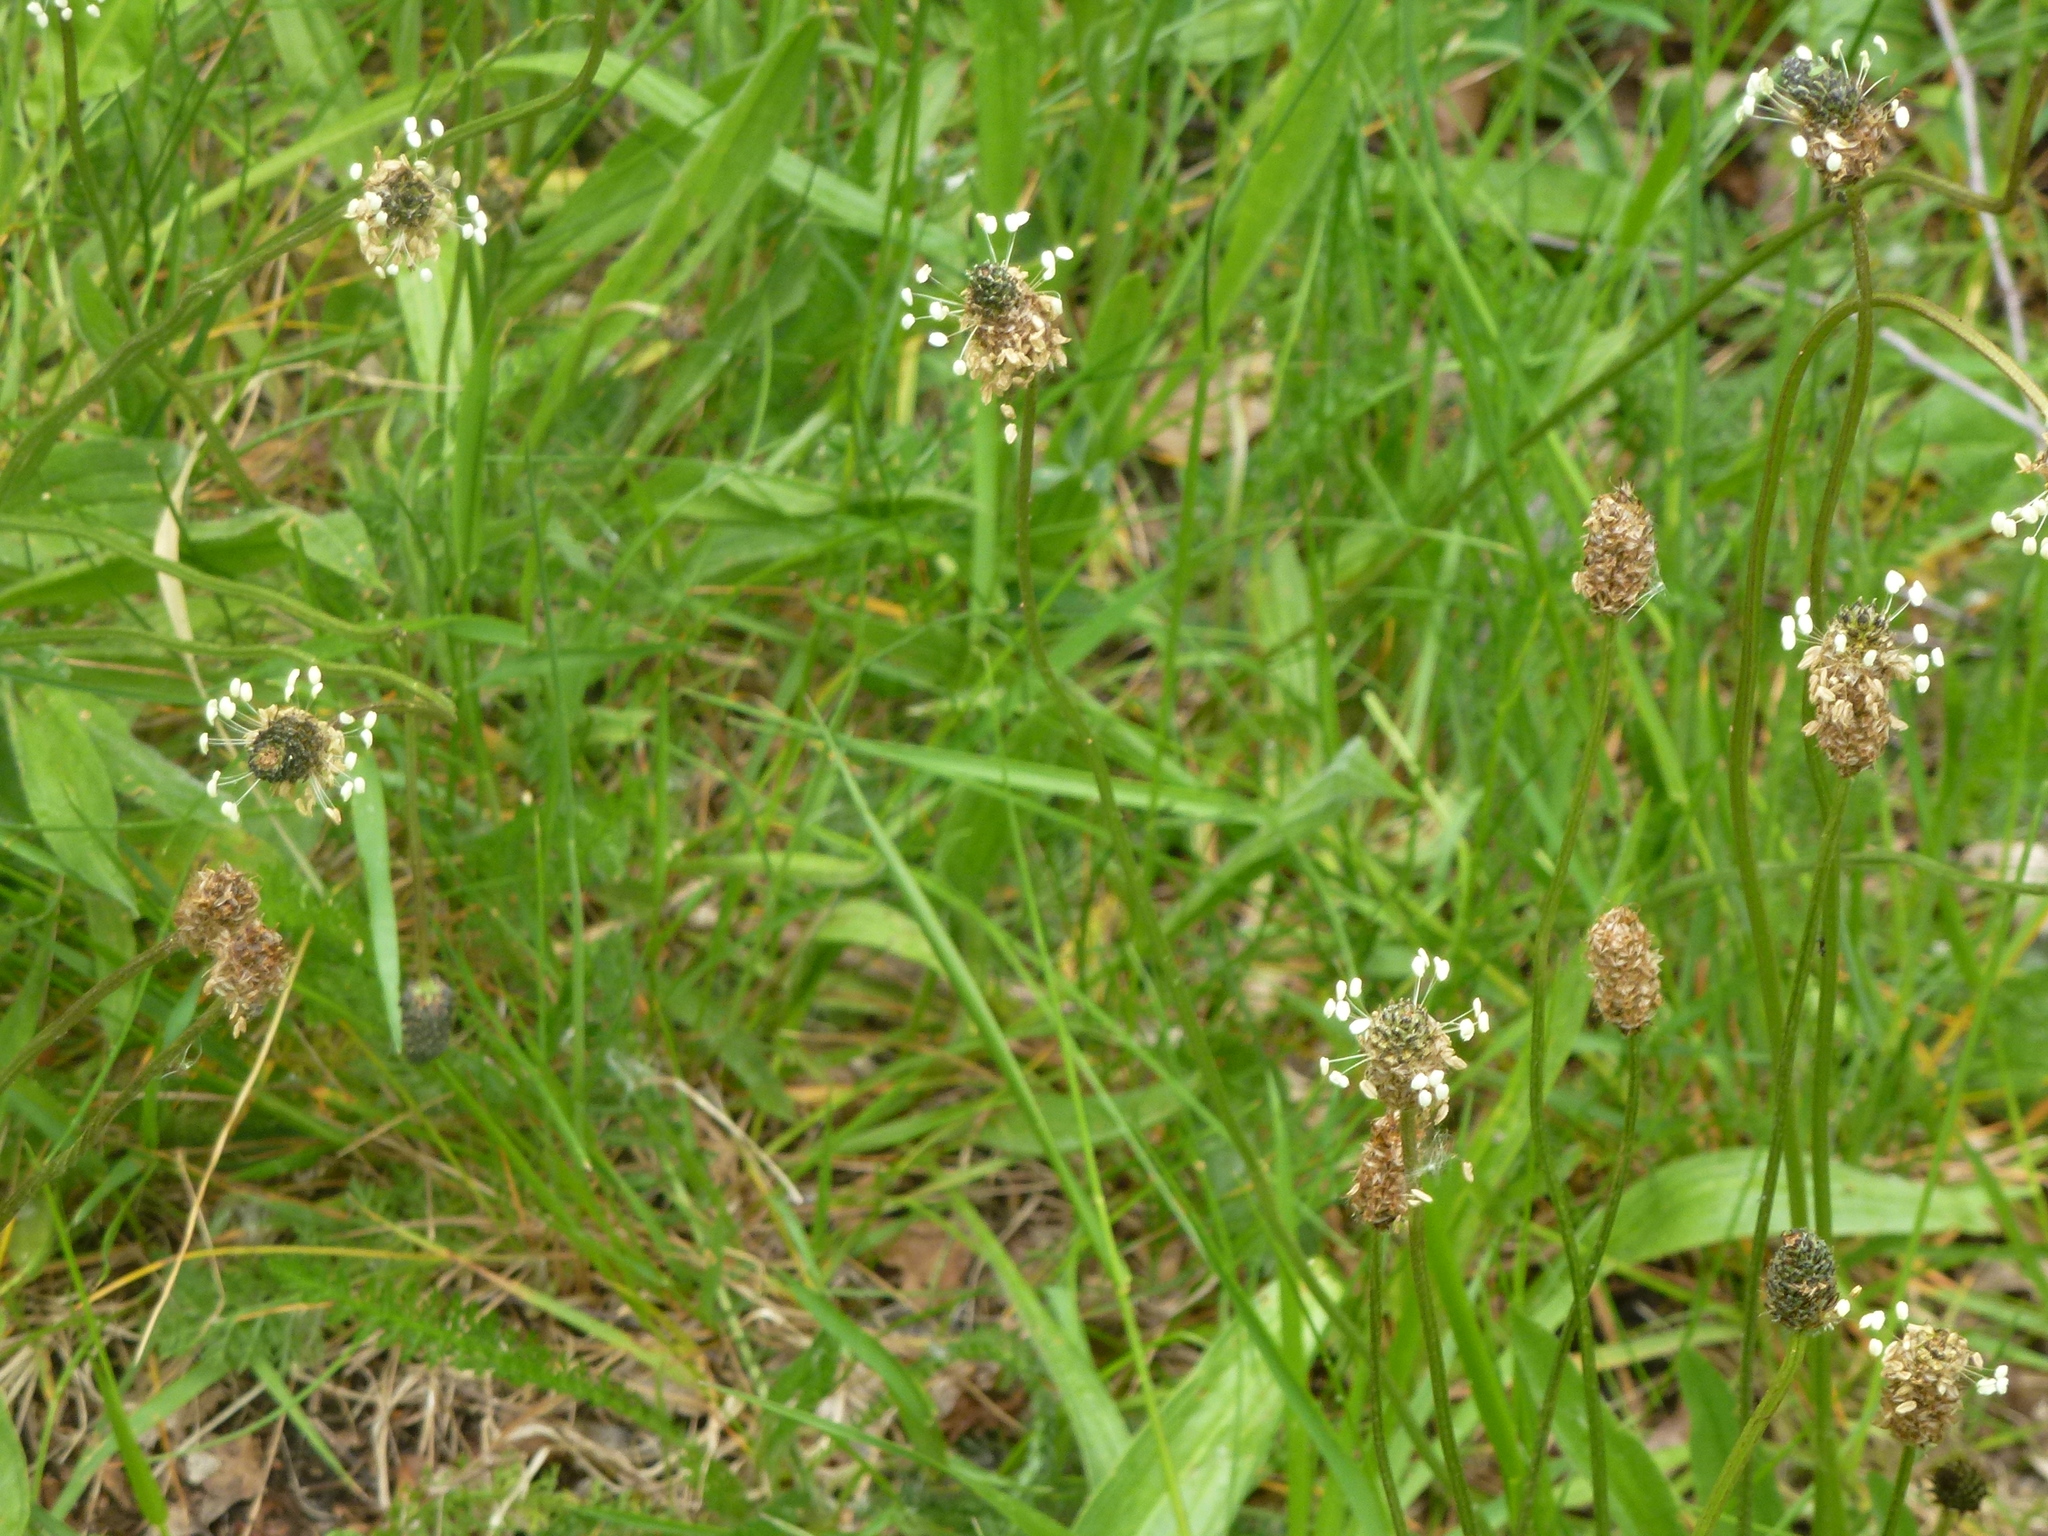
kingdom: Plantae
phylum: Tracheophyta
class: Magnoliopsida
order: Lamiales
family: Plantaginaceae
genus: Plantago
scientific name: Plantago lanceolata
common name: Ribwort plantain
